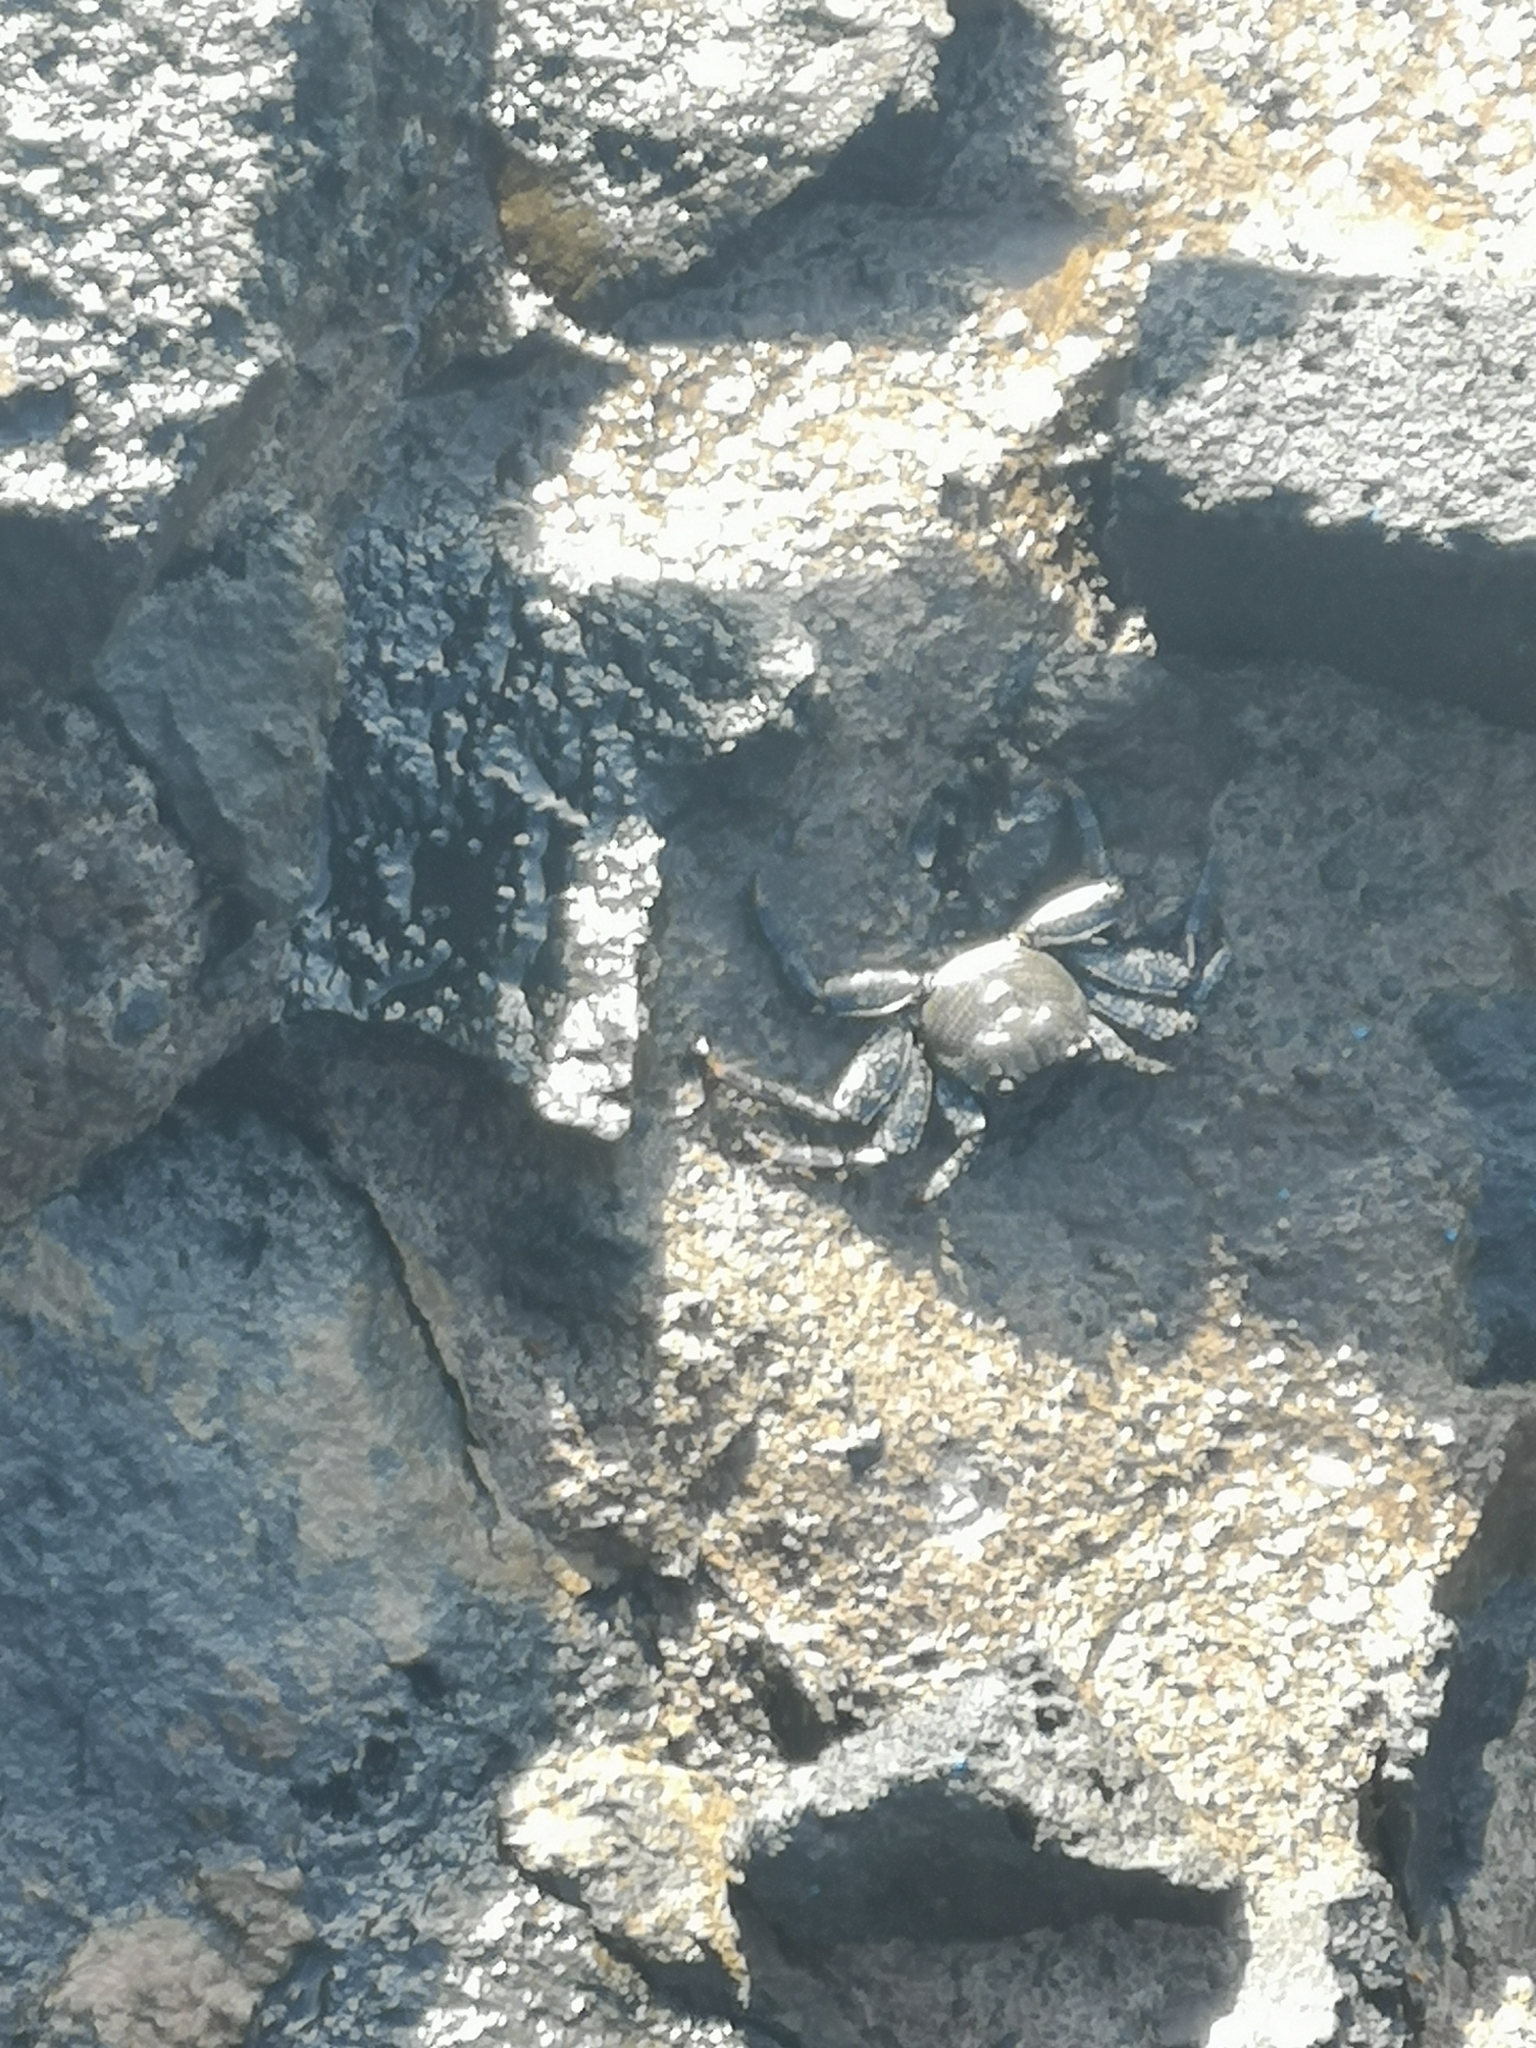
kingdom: Animalia
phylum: Arthropoda
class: Malacostraca
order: Decapoda
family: Grapsidae
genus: Grapsus
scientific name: Grapsus adscensionis
